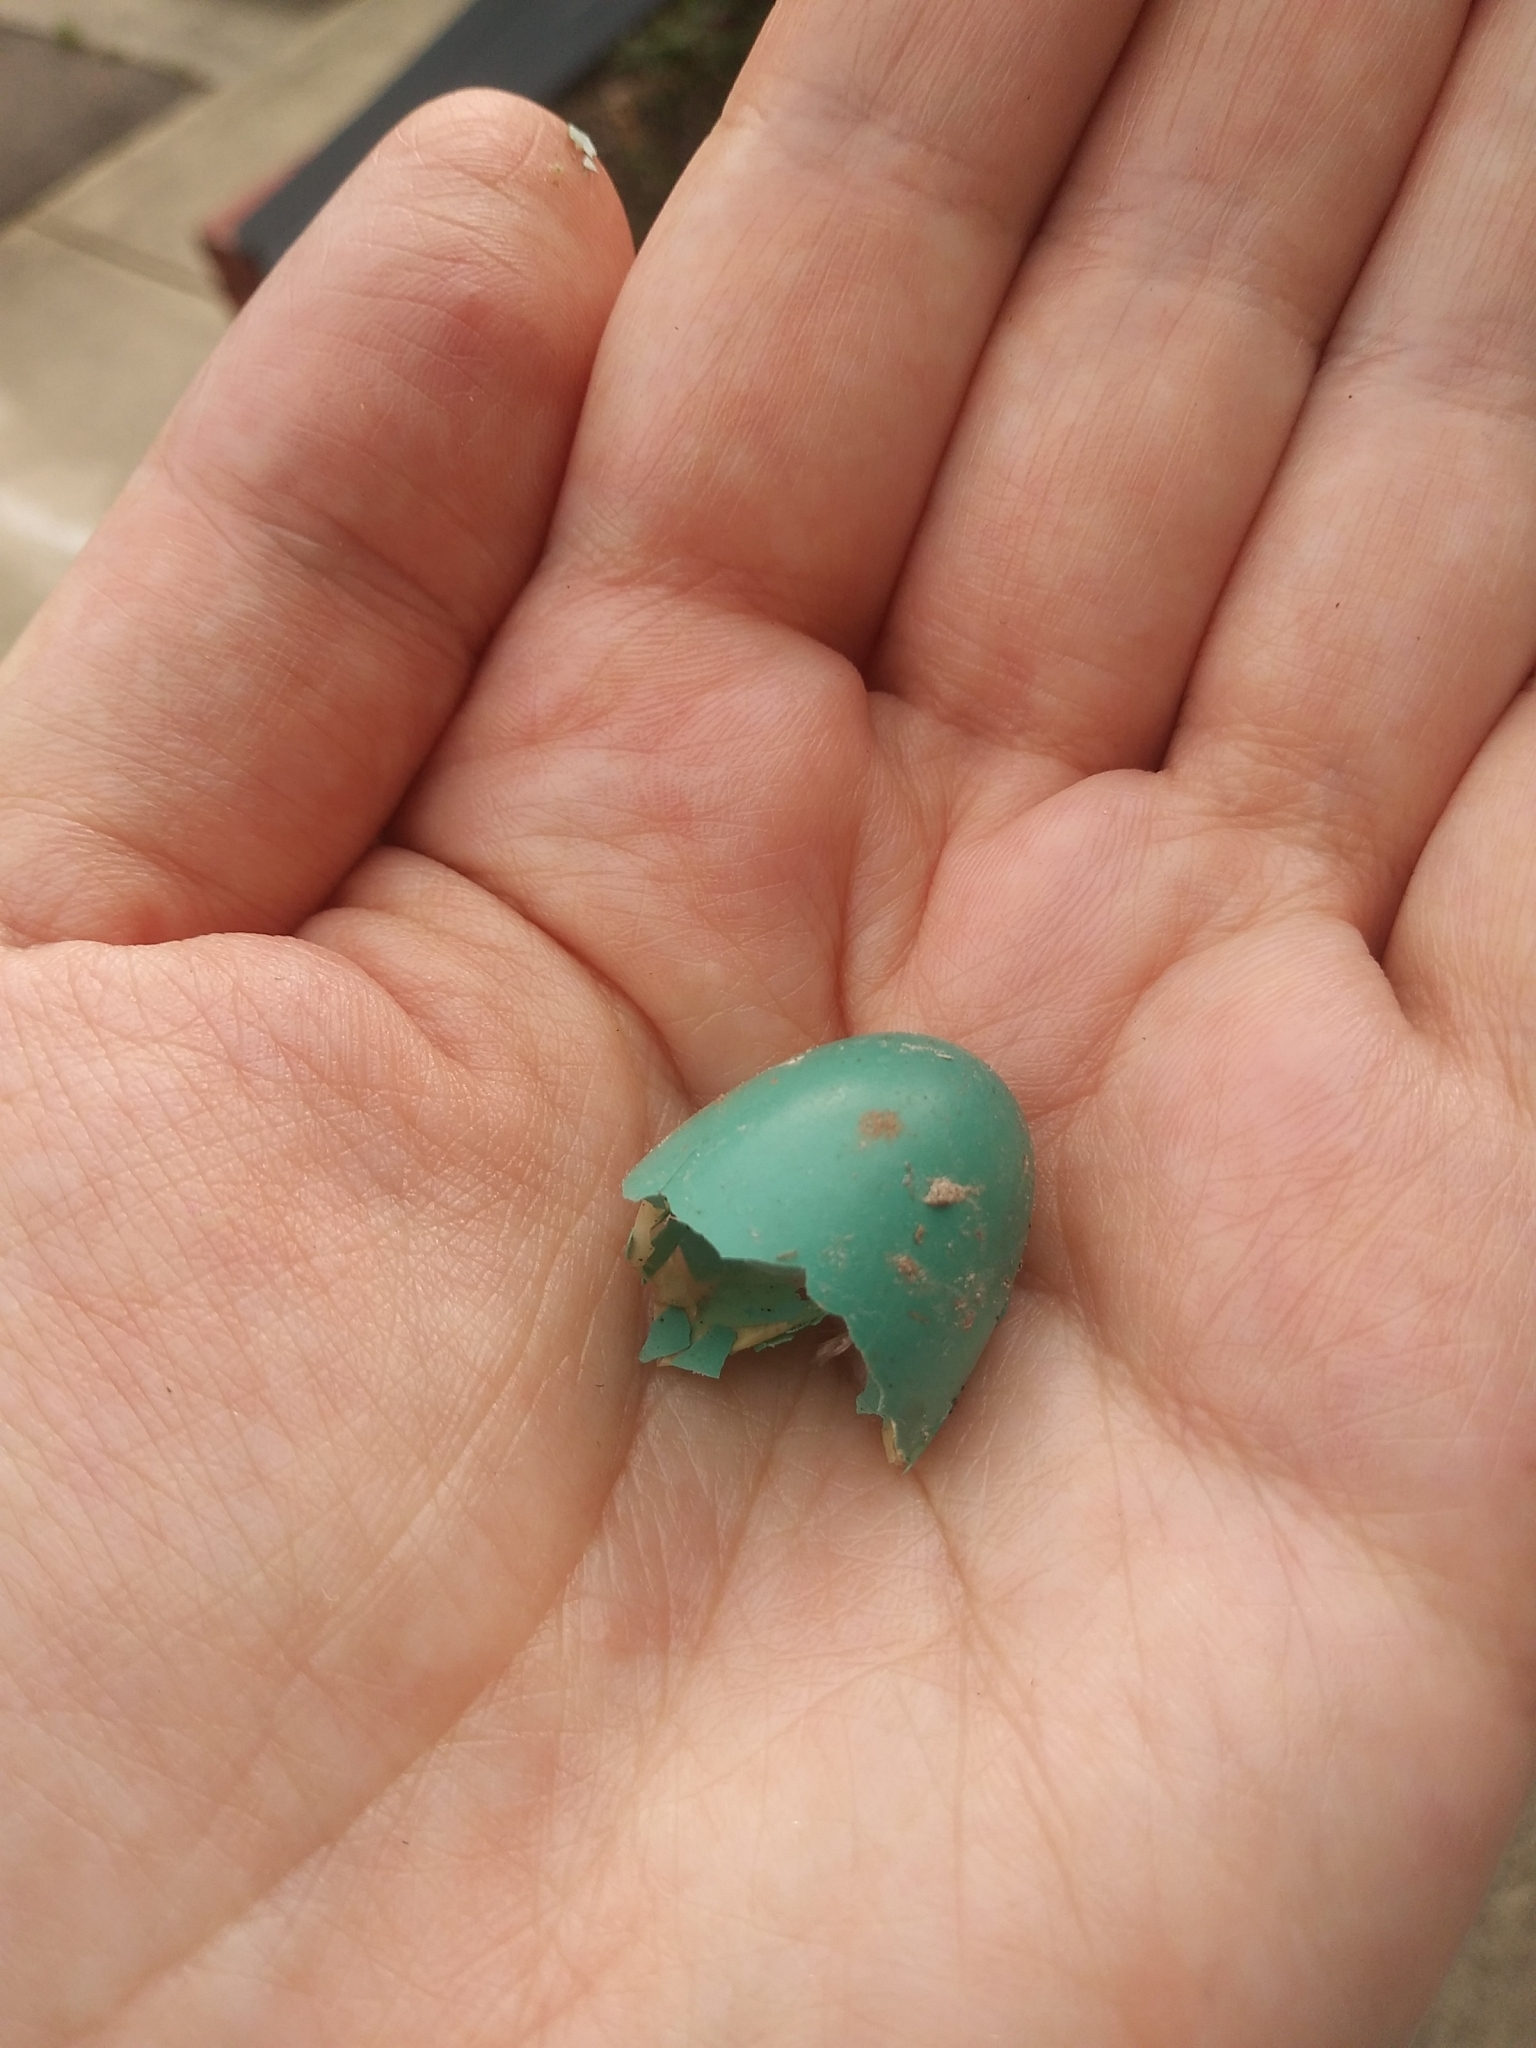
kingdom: Animalia
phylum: Chordata
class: Aves
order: Passeriformes
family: Turdidae
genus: Turdus
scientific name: Turdus migratorius
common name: American robin
